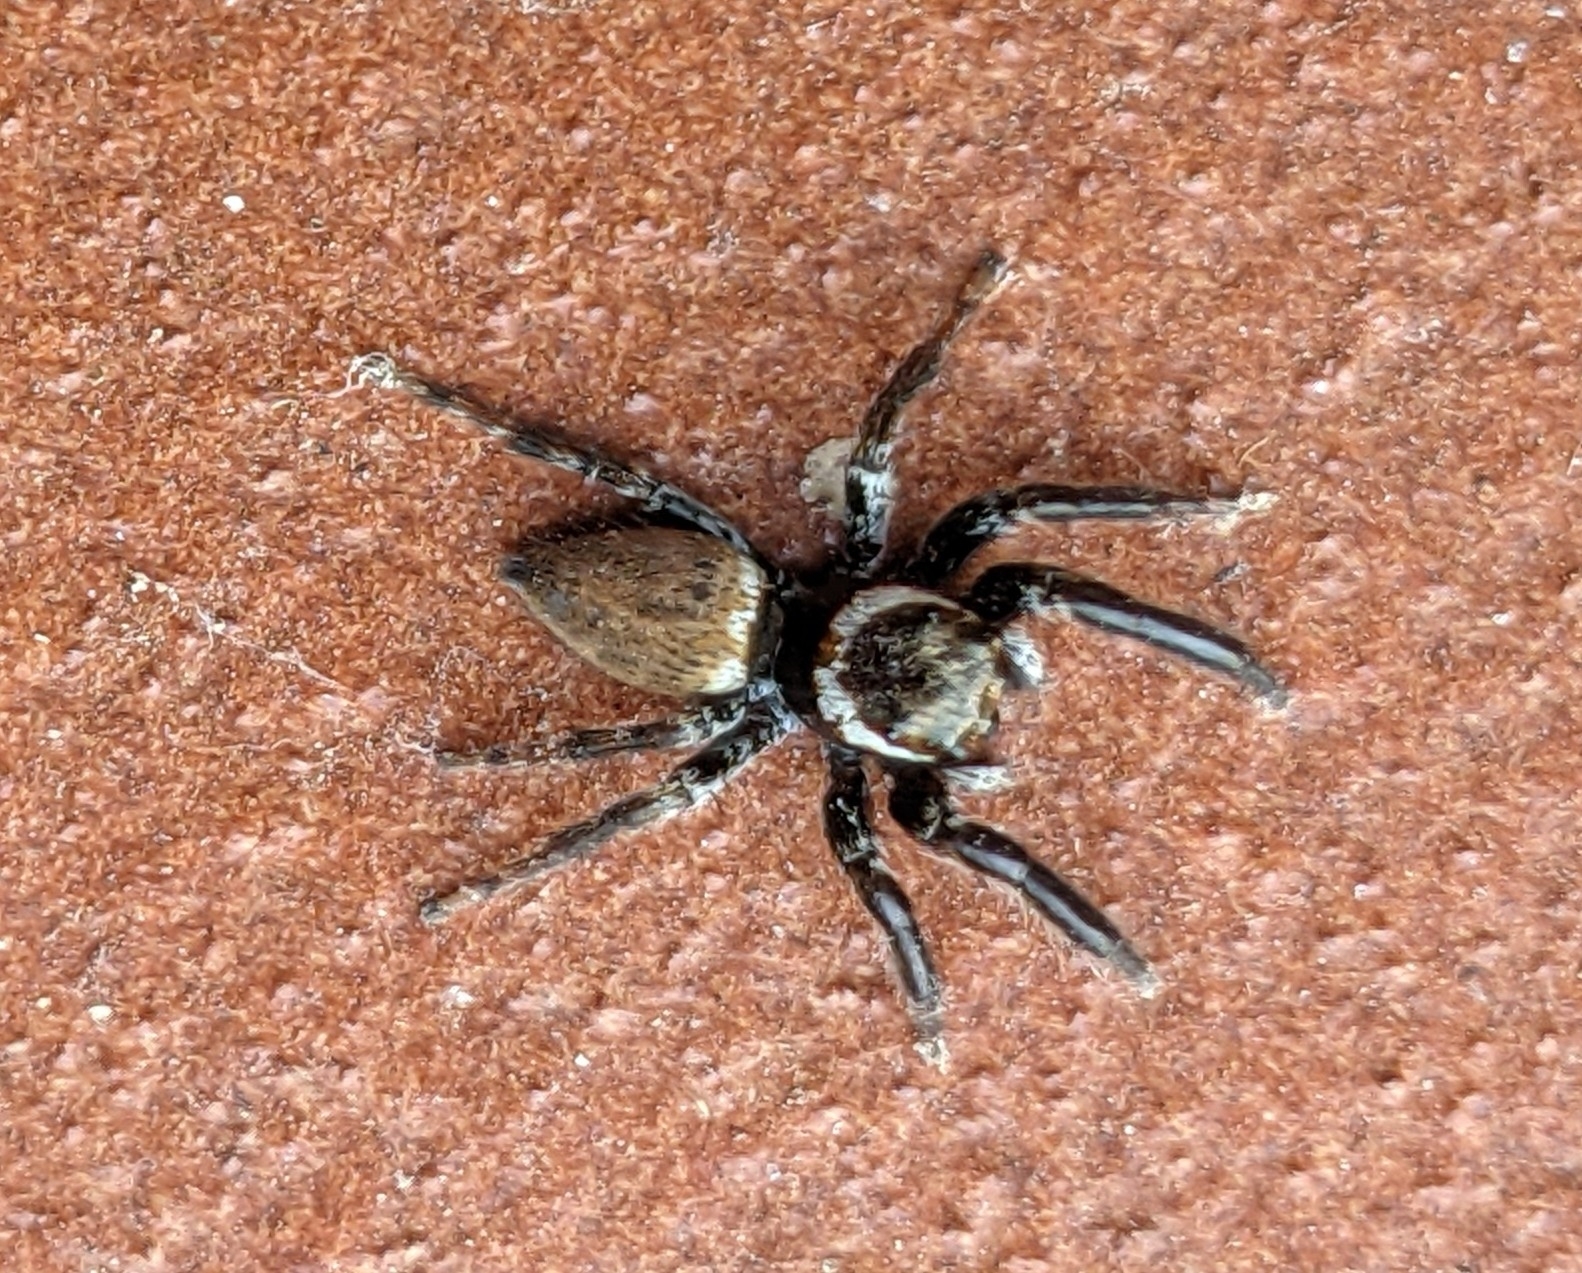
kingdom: Animalia
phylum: Arthropoda
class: Arachnida
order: Araneae
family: Salticidae
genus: Evarcha
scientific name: Evarcha jucunda
